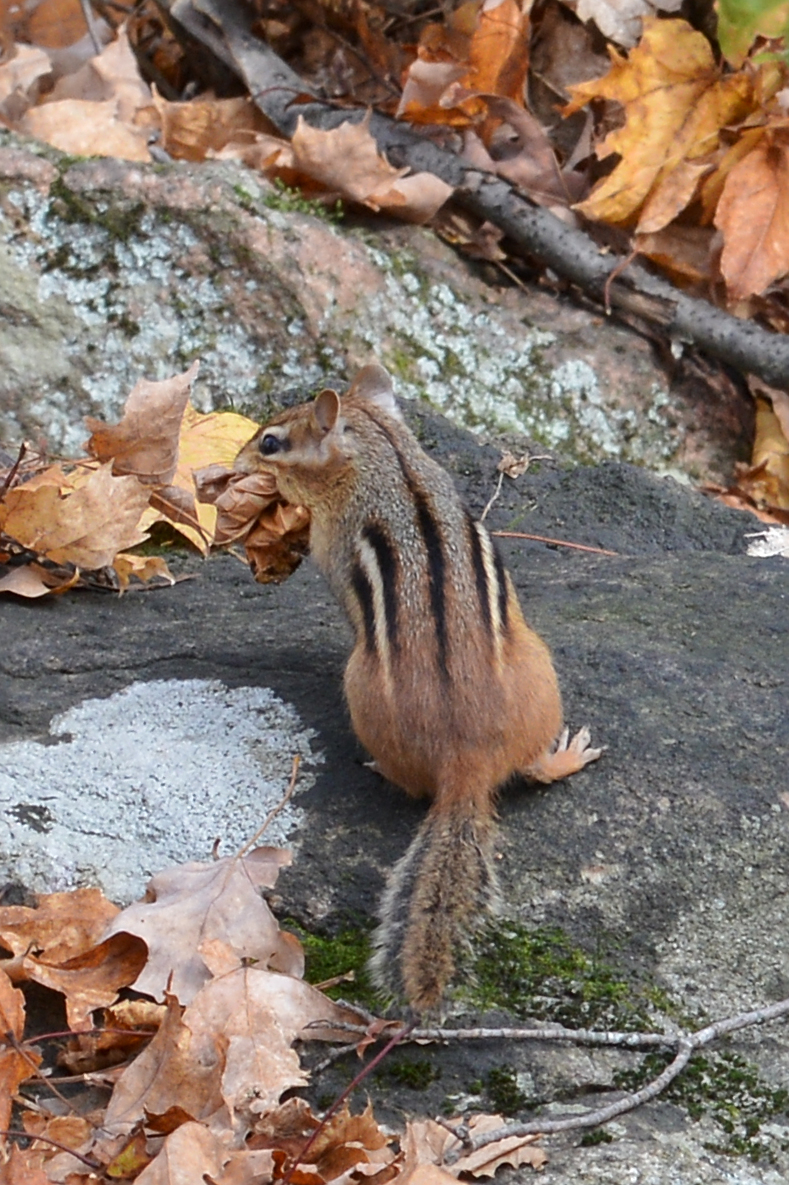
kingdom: Animalia
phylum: Chordata
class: Mammalia
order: Rodentia
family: Sciuridae
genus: Tamias
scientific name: Tamias striatus
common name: Eastern chipmunk
